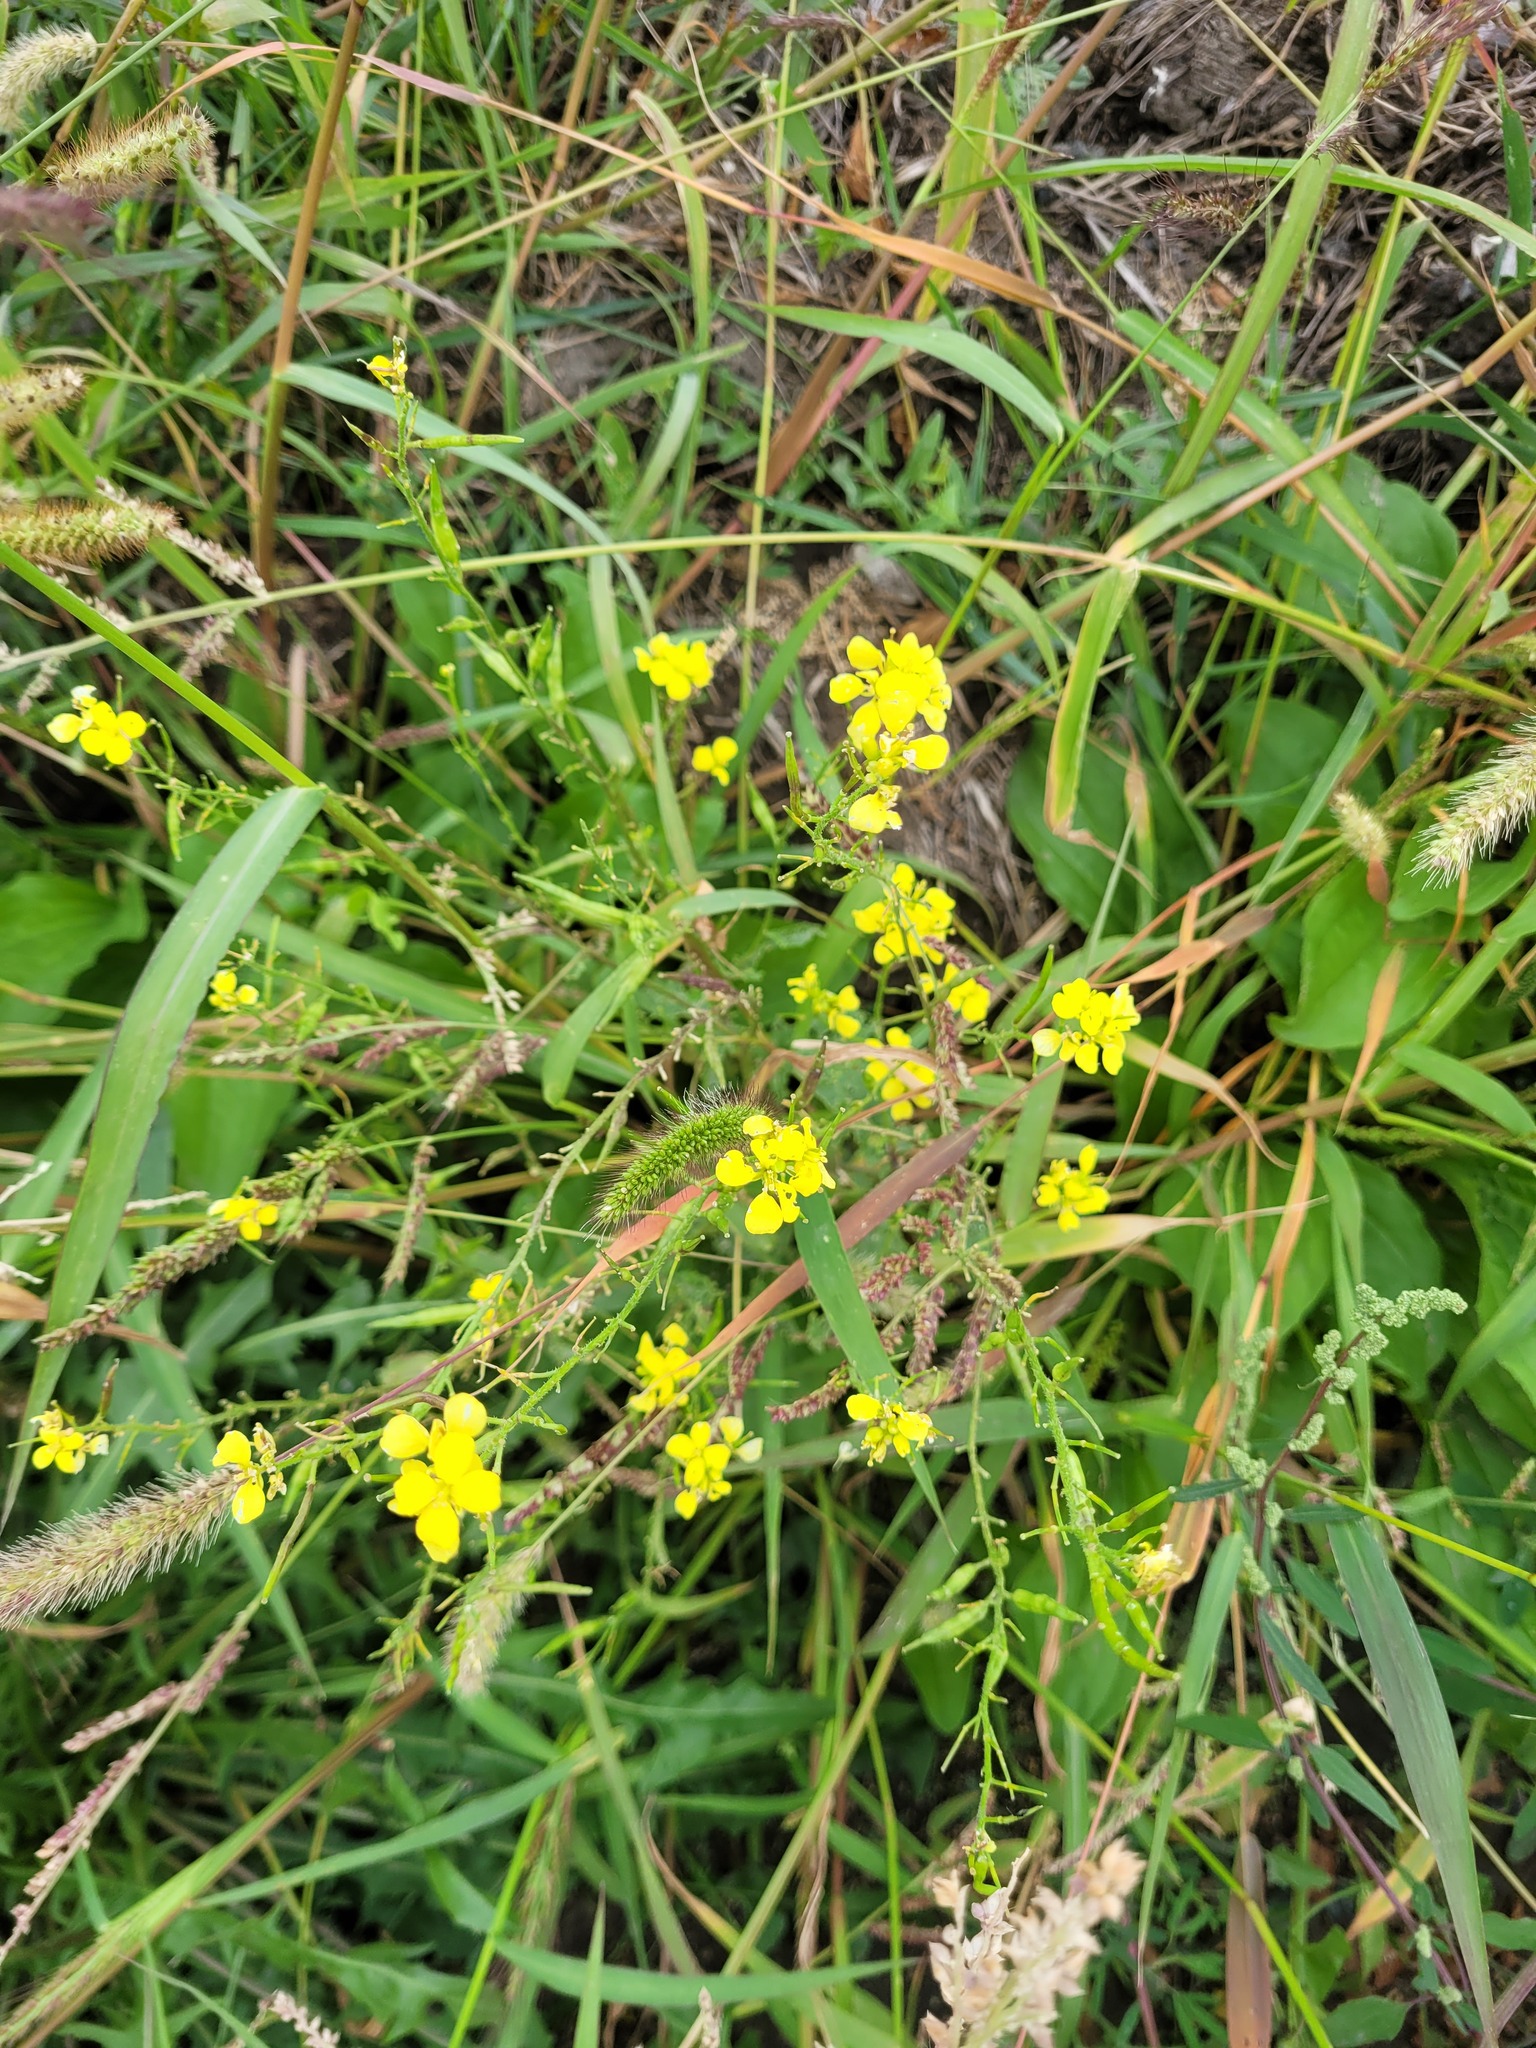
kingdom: Plantae
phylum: Tracheophyta
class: Magnoliopsida
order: Brassicales
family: Brassicaceae
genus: Sinapis
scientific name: Sinapis arvensis
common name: Charlock
